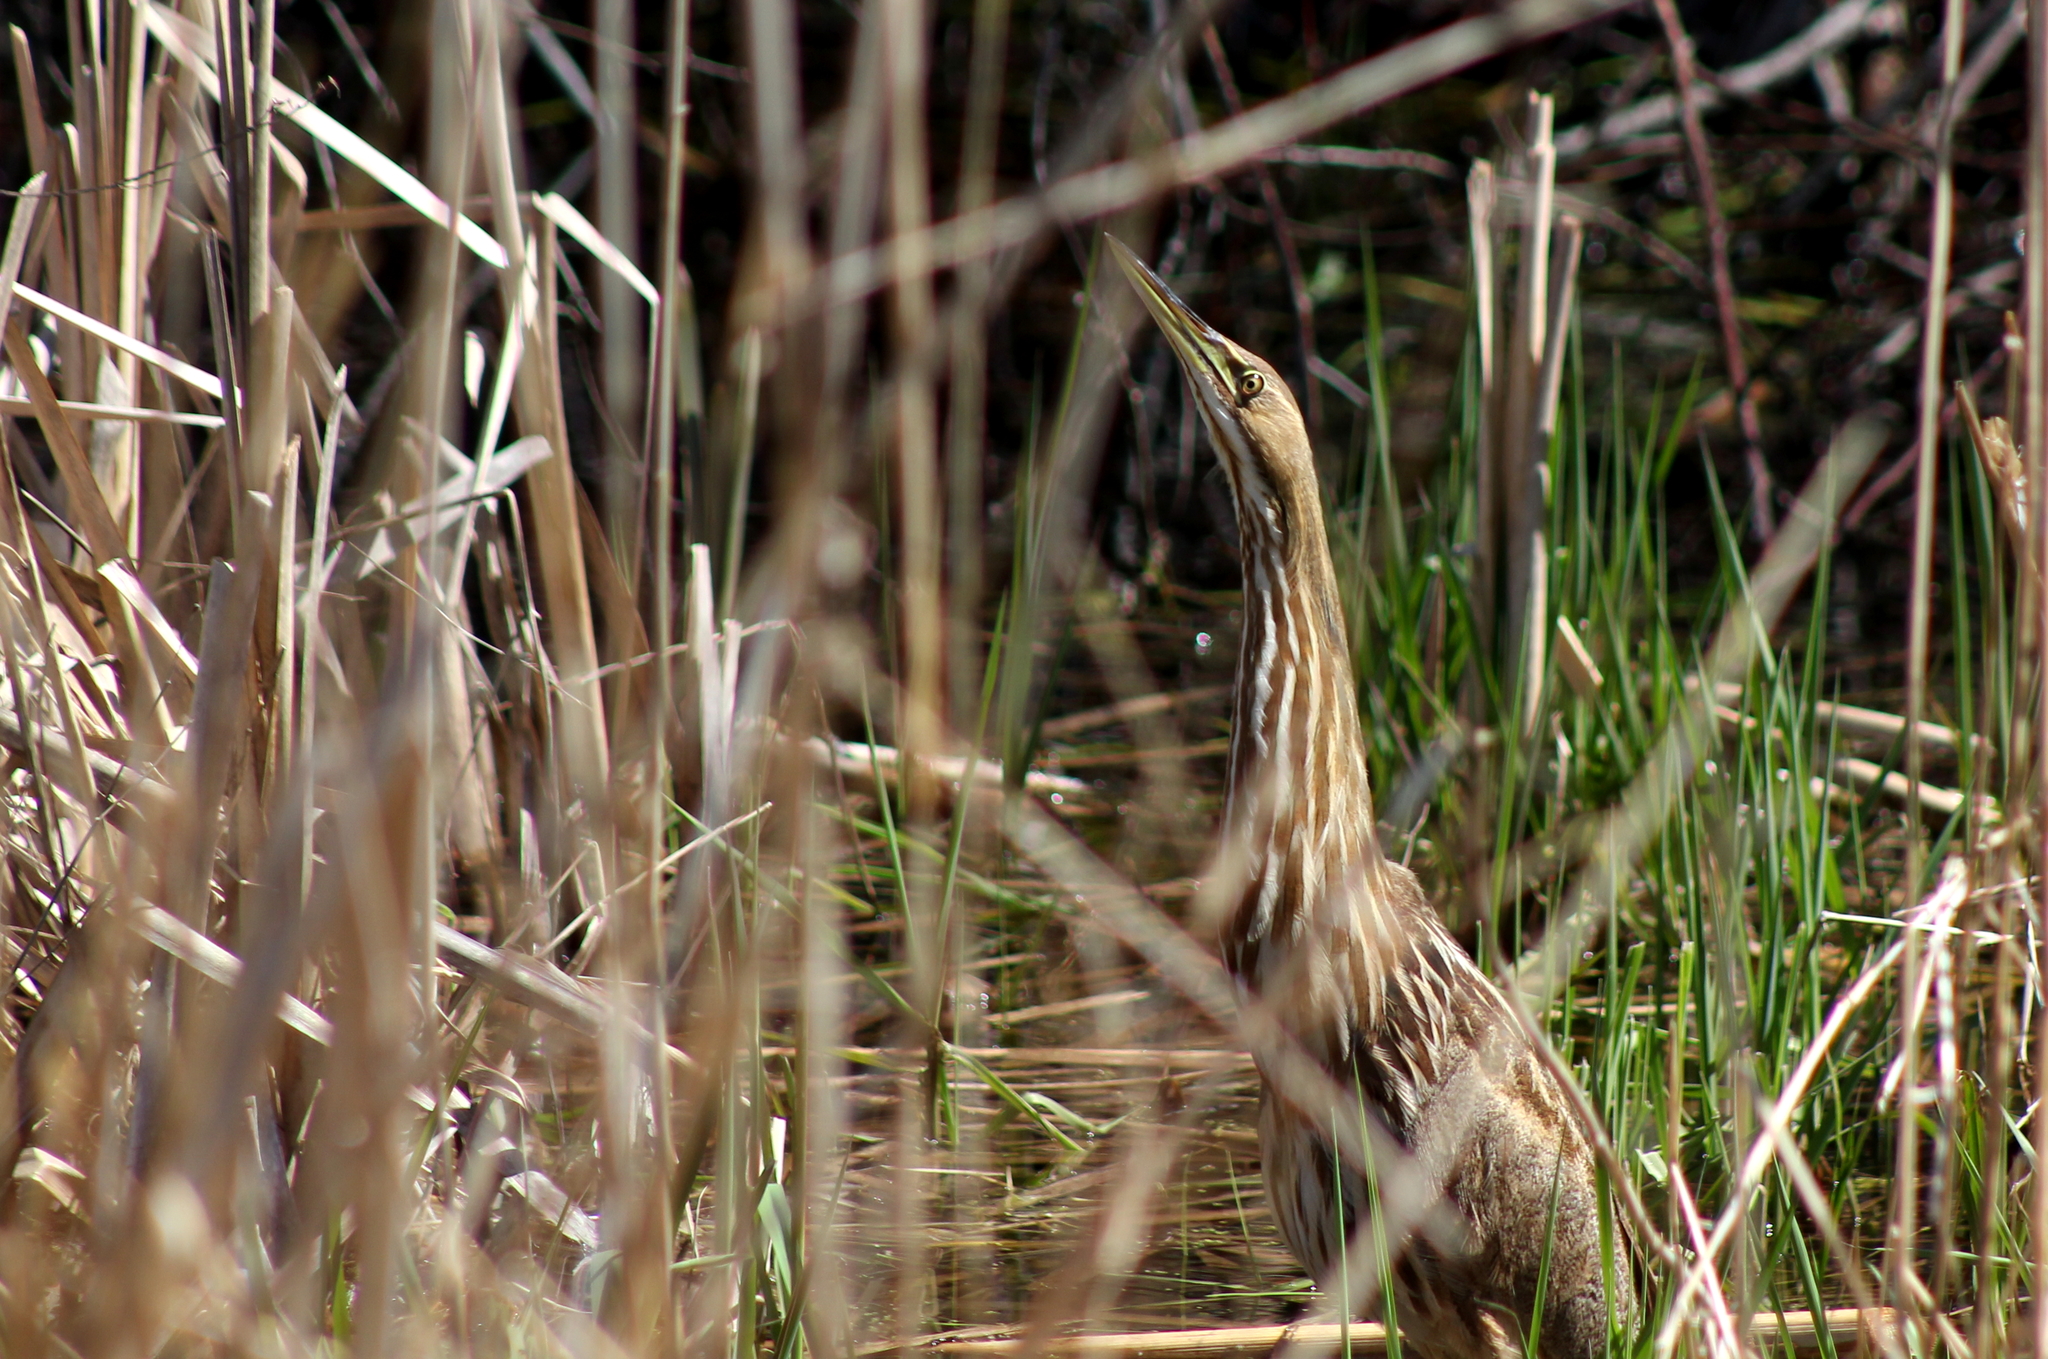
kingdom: Animalia
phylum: Chordata
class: Aves
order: Pelecaniformes
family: Ardeidae
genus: Botaurus
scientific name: Botaurus lentiginosus
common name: American bittern
